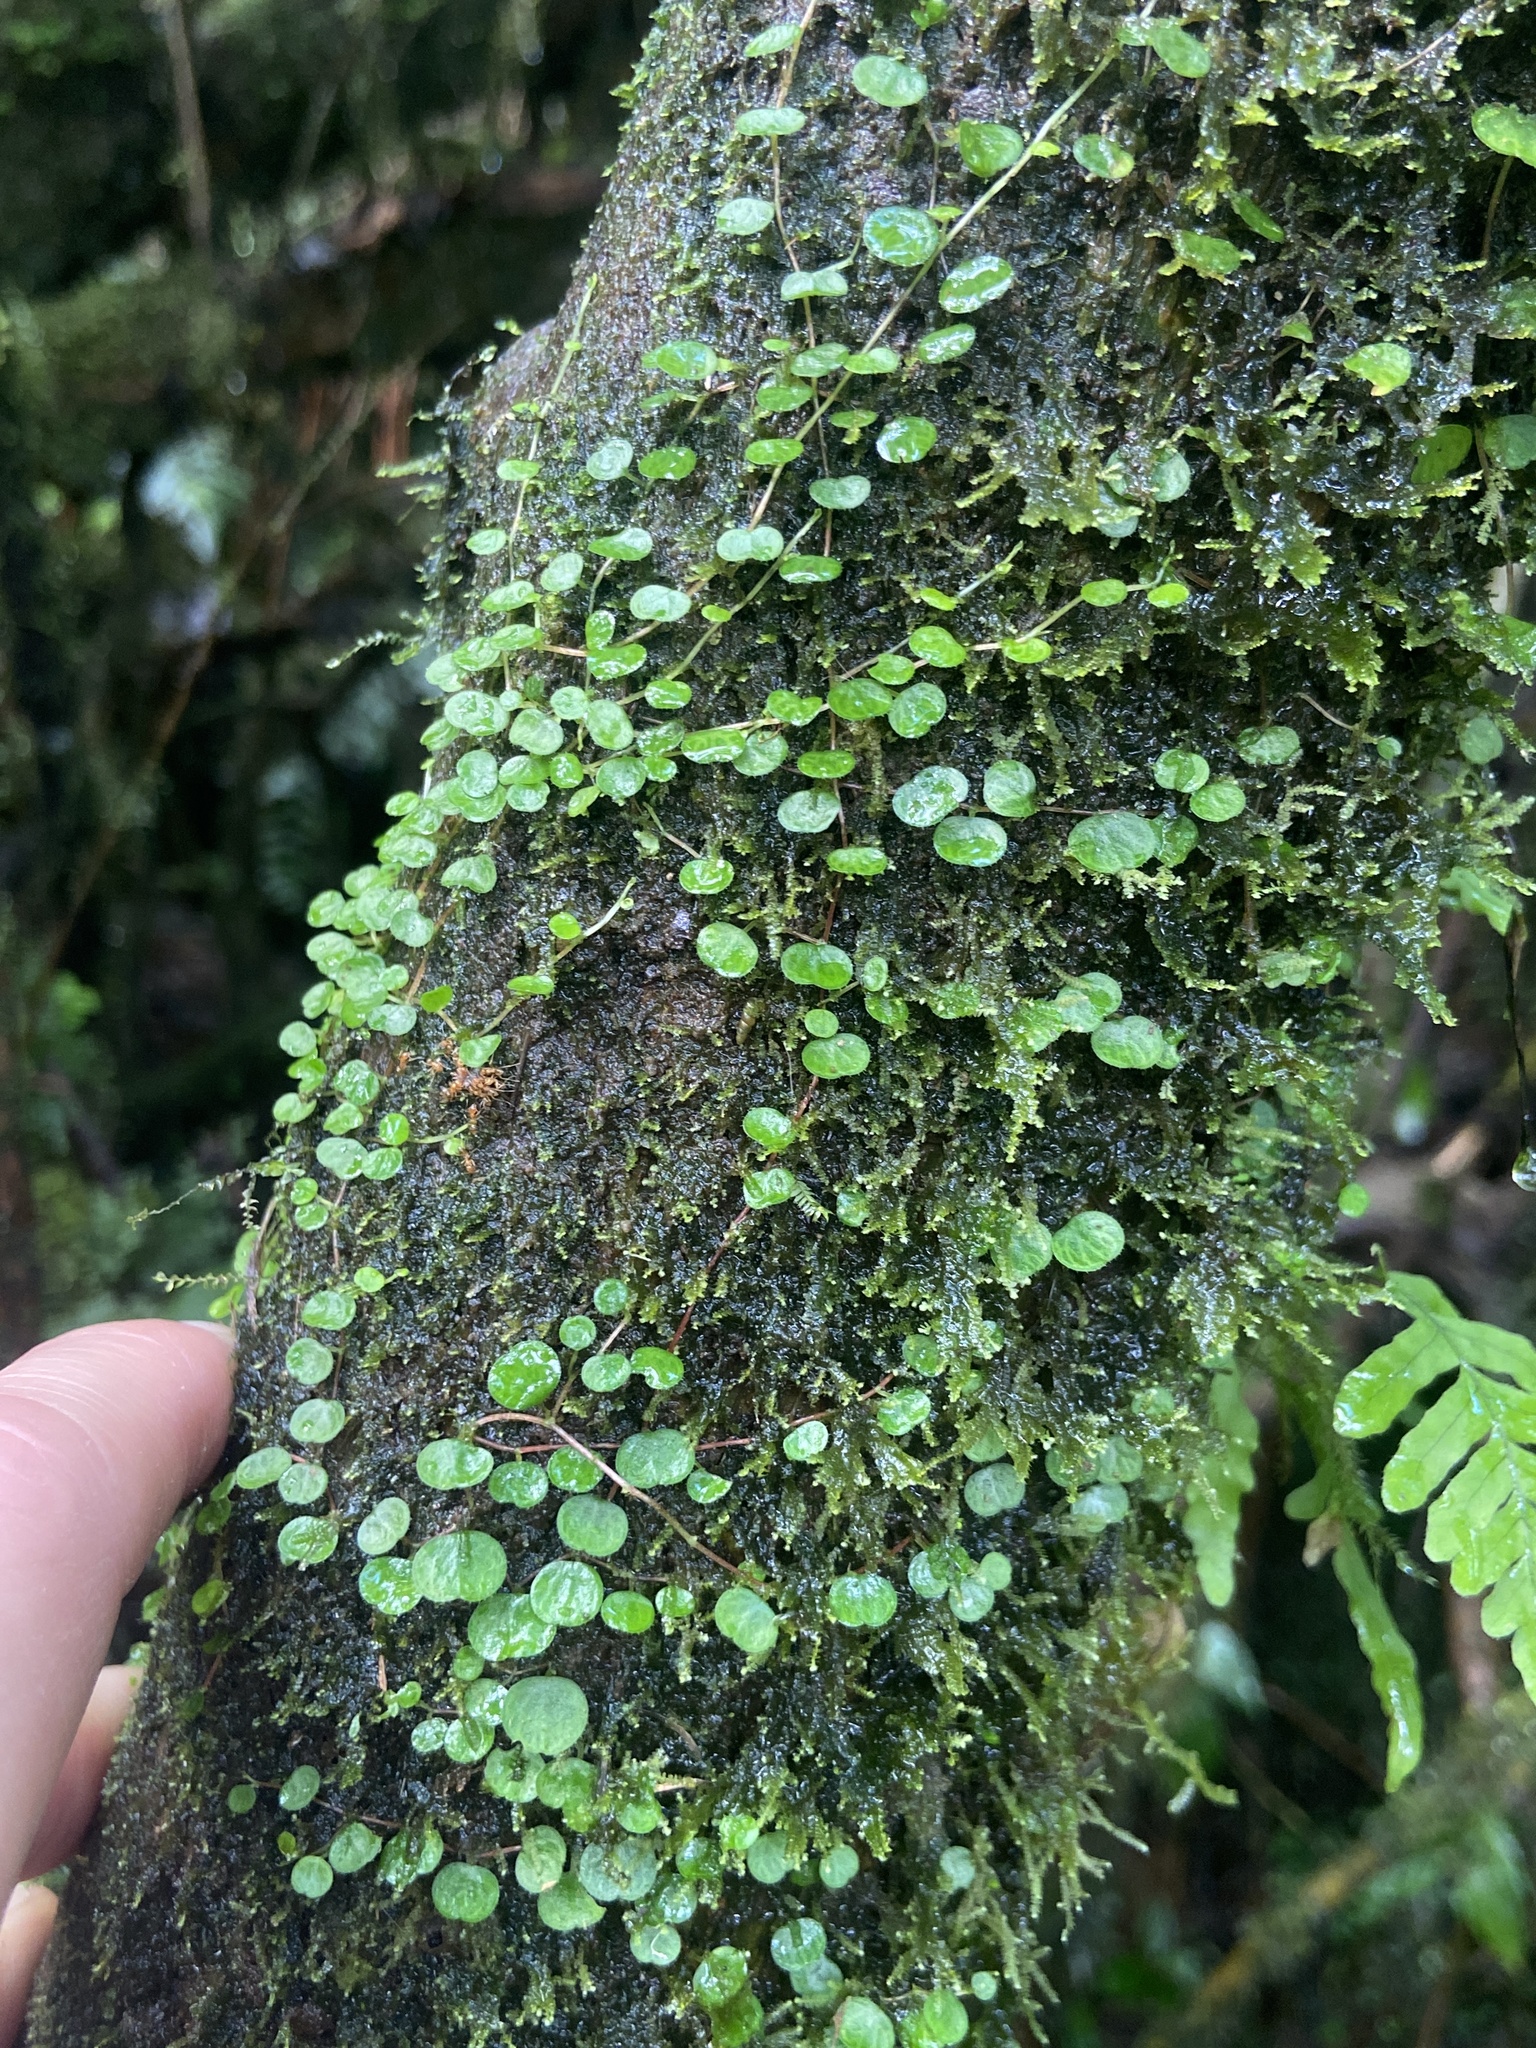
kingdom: Plantae
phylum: Tracheophyta
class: Magnoliopsida
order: Piperales
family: Piperaceae
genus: Peperomia
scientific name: Peperomia emarginella
